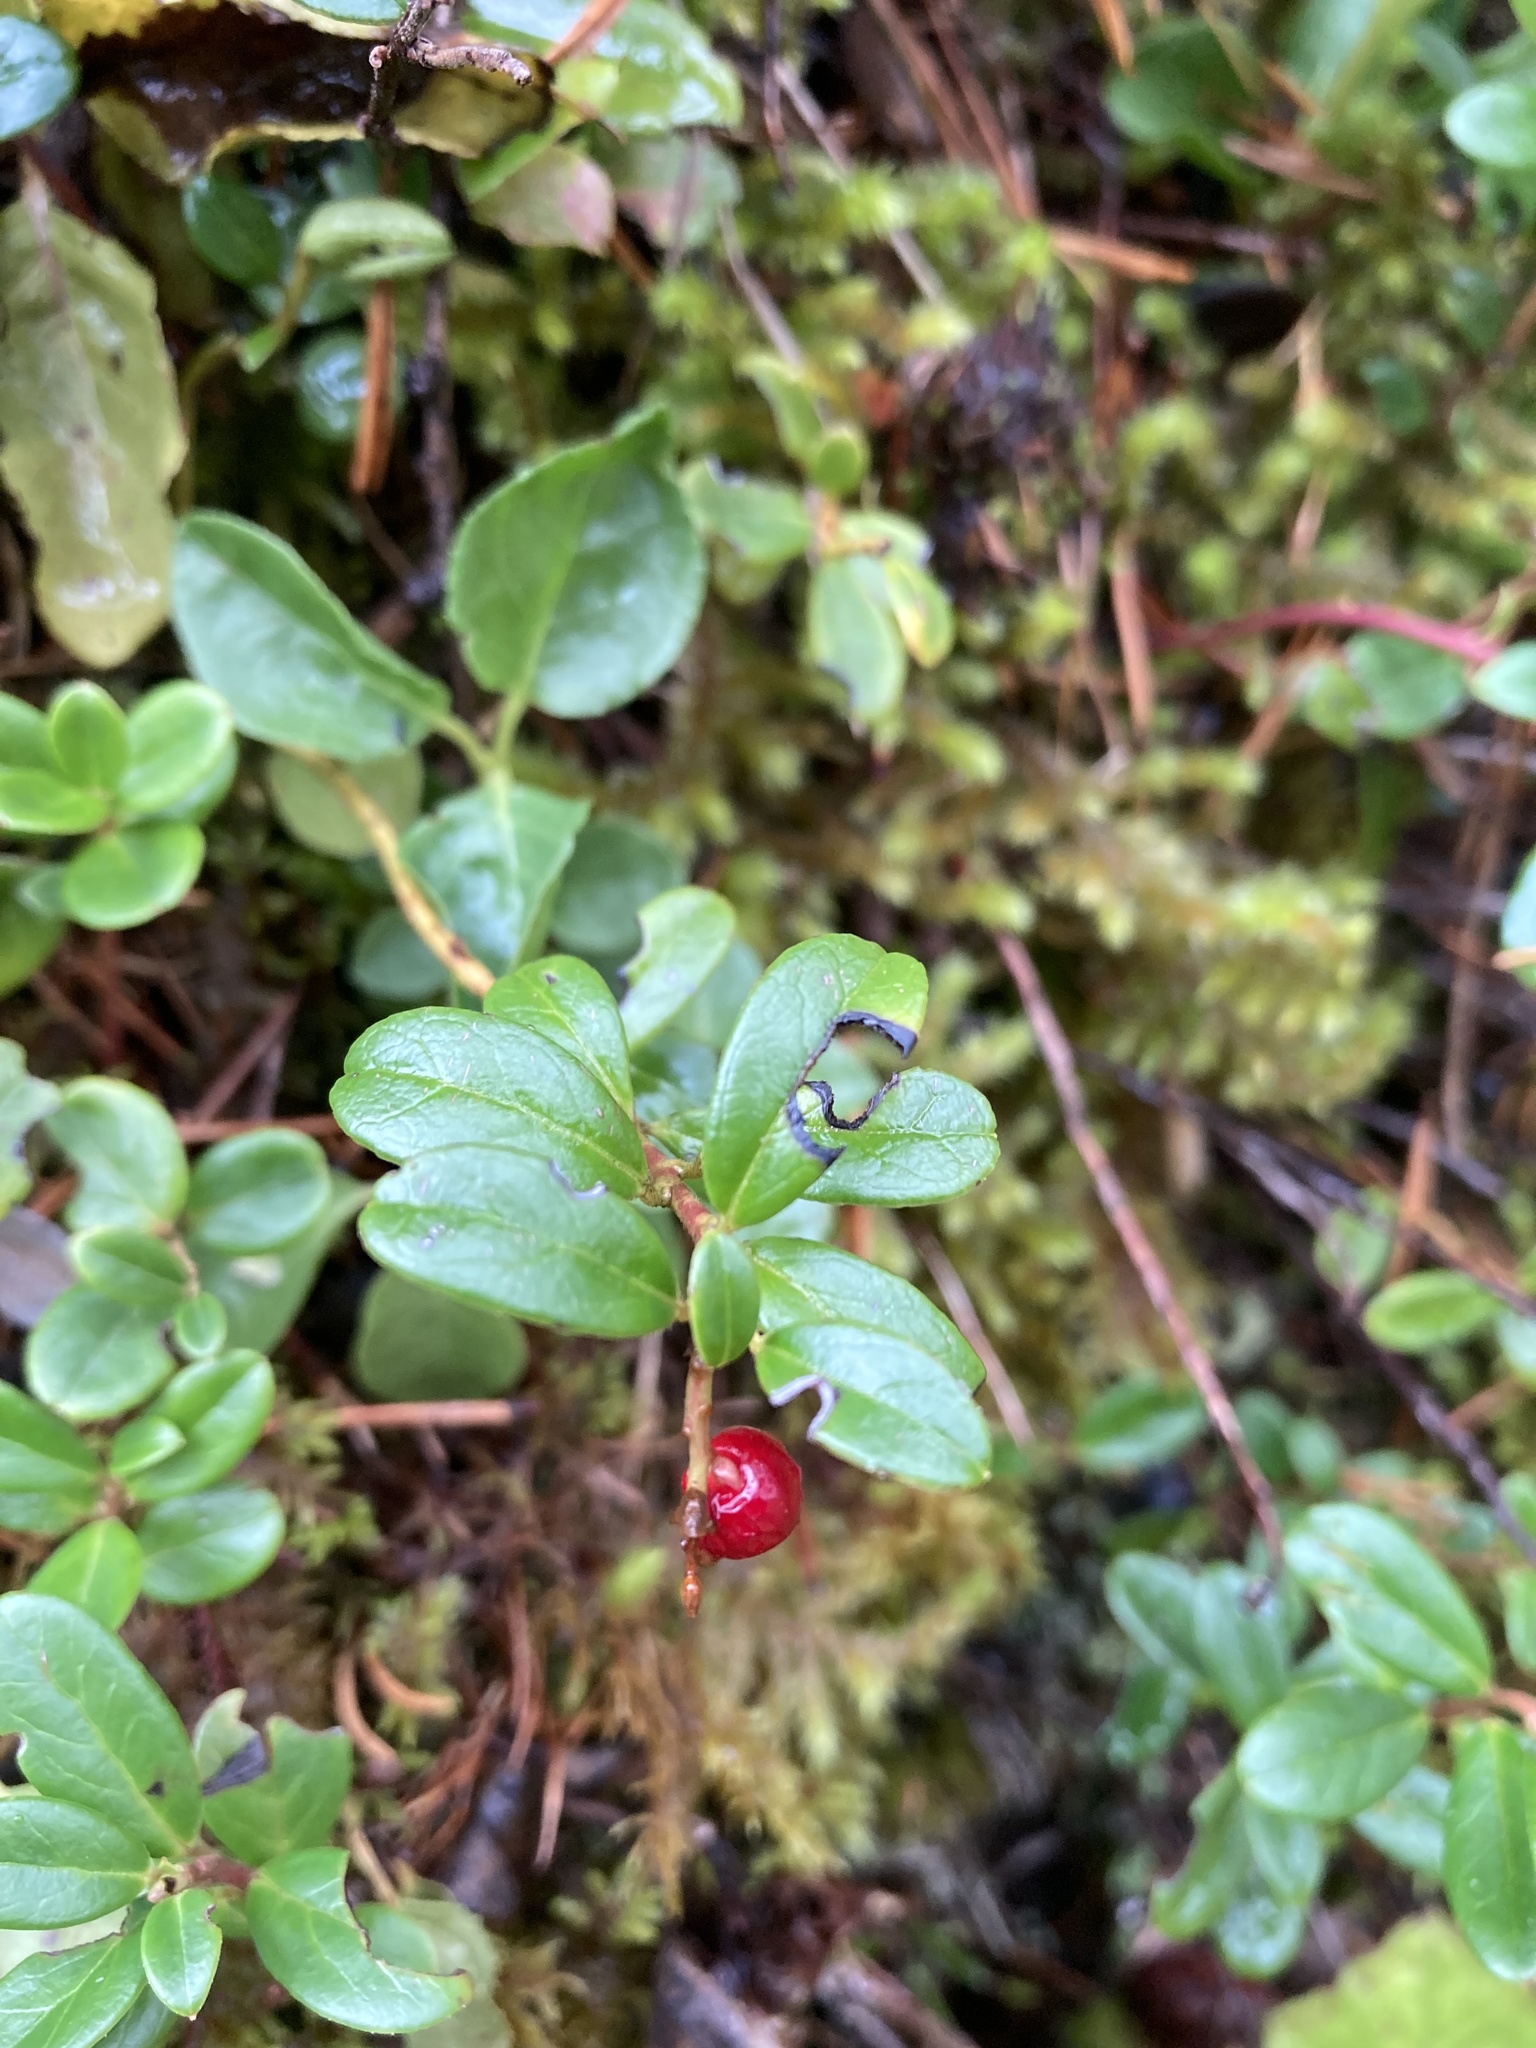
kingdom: Plantae
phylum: Tracheophyta
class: Magnoliopsida
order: Ericales
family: Ericaceae
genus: Vaccinium
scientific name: Vaccinium vitis-idaea
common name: Cowberry
